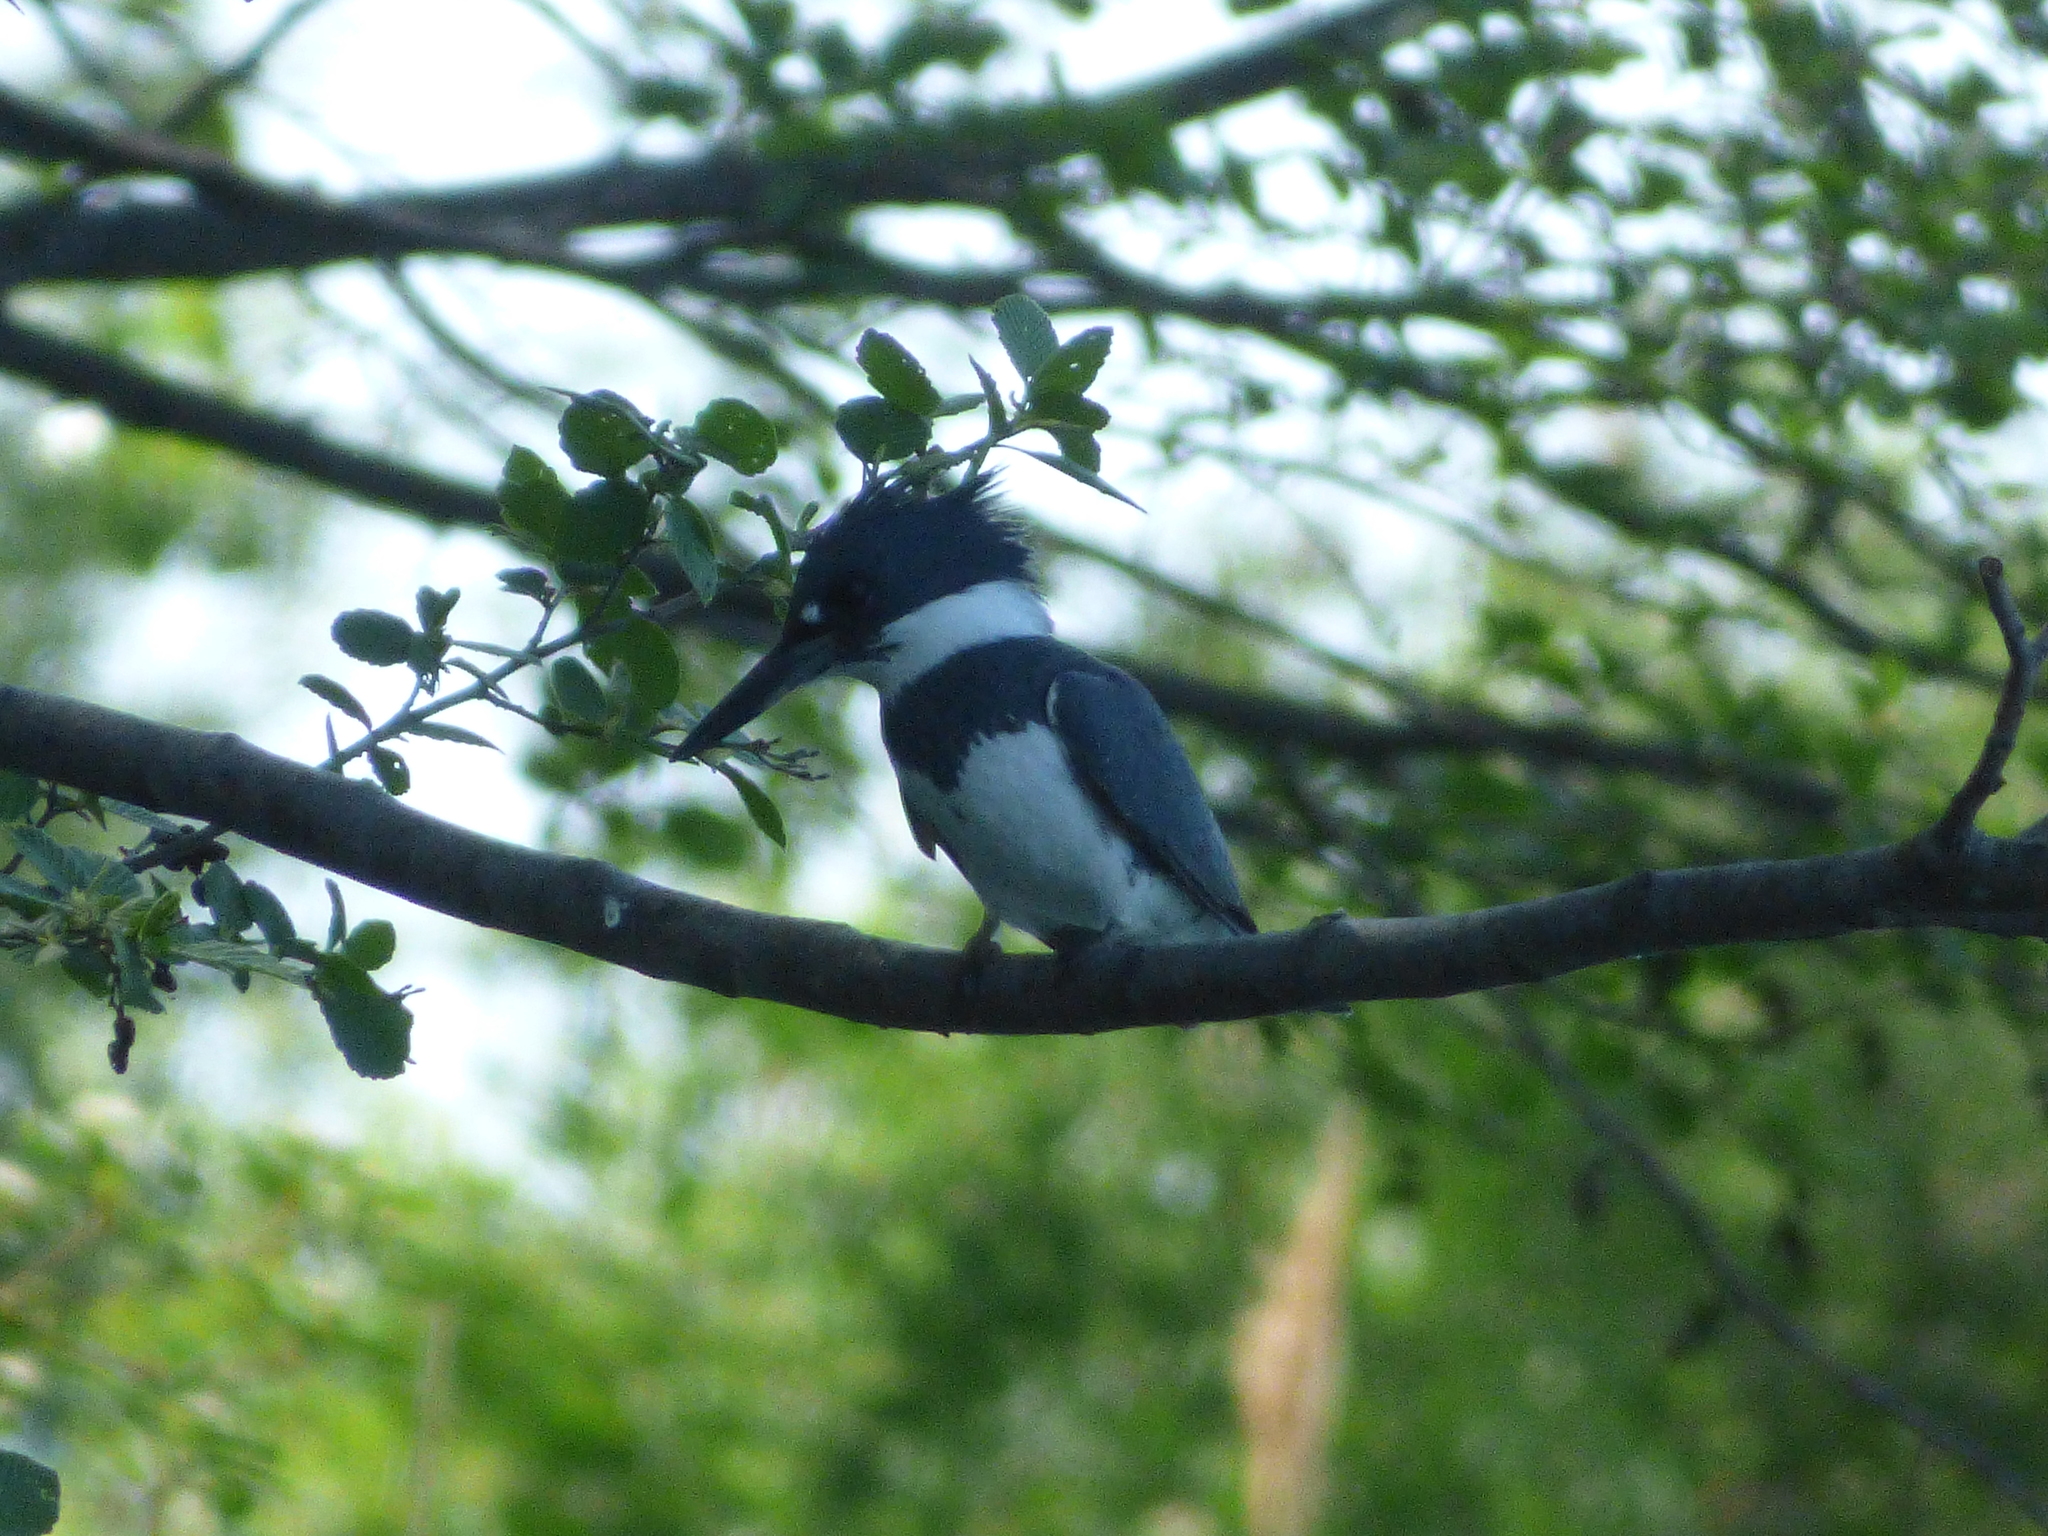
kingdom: Animalia
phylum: Chordata
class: Aves
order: Coraciiformes
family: Alcedinidae
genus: Megaceryle
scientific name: Megaceryle alcyon
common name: Belted kingfisher
